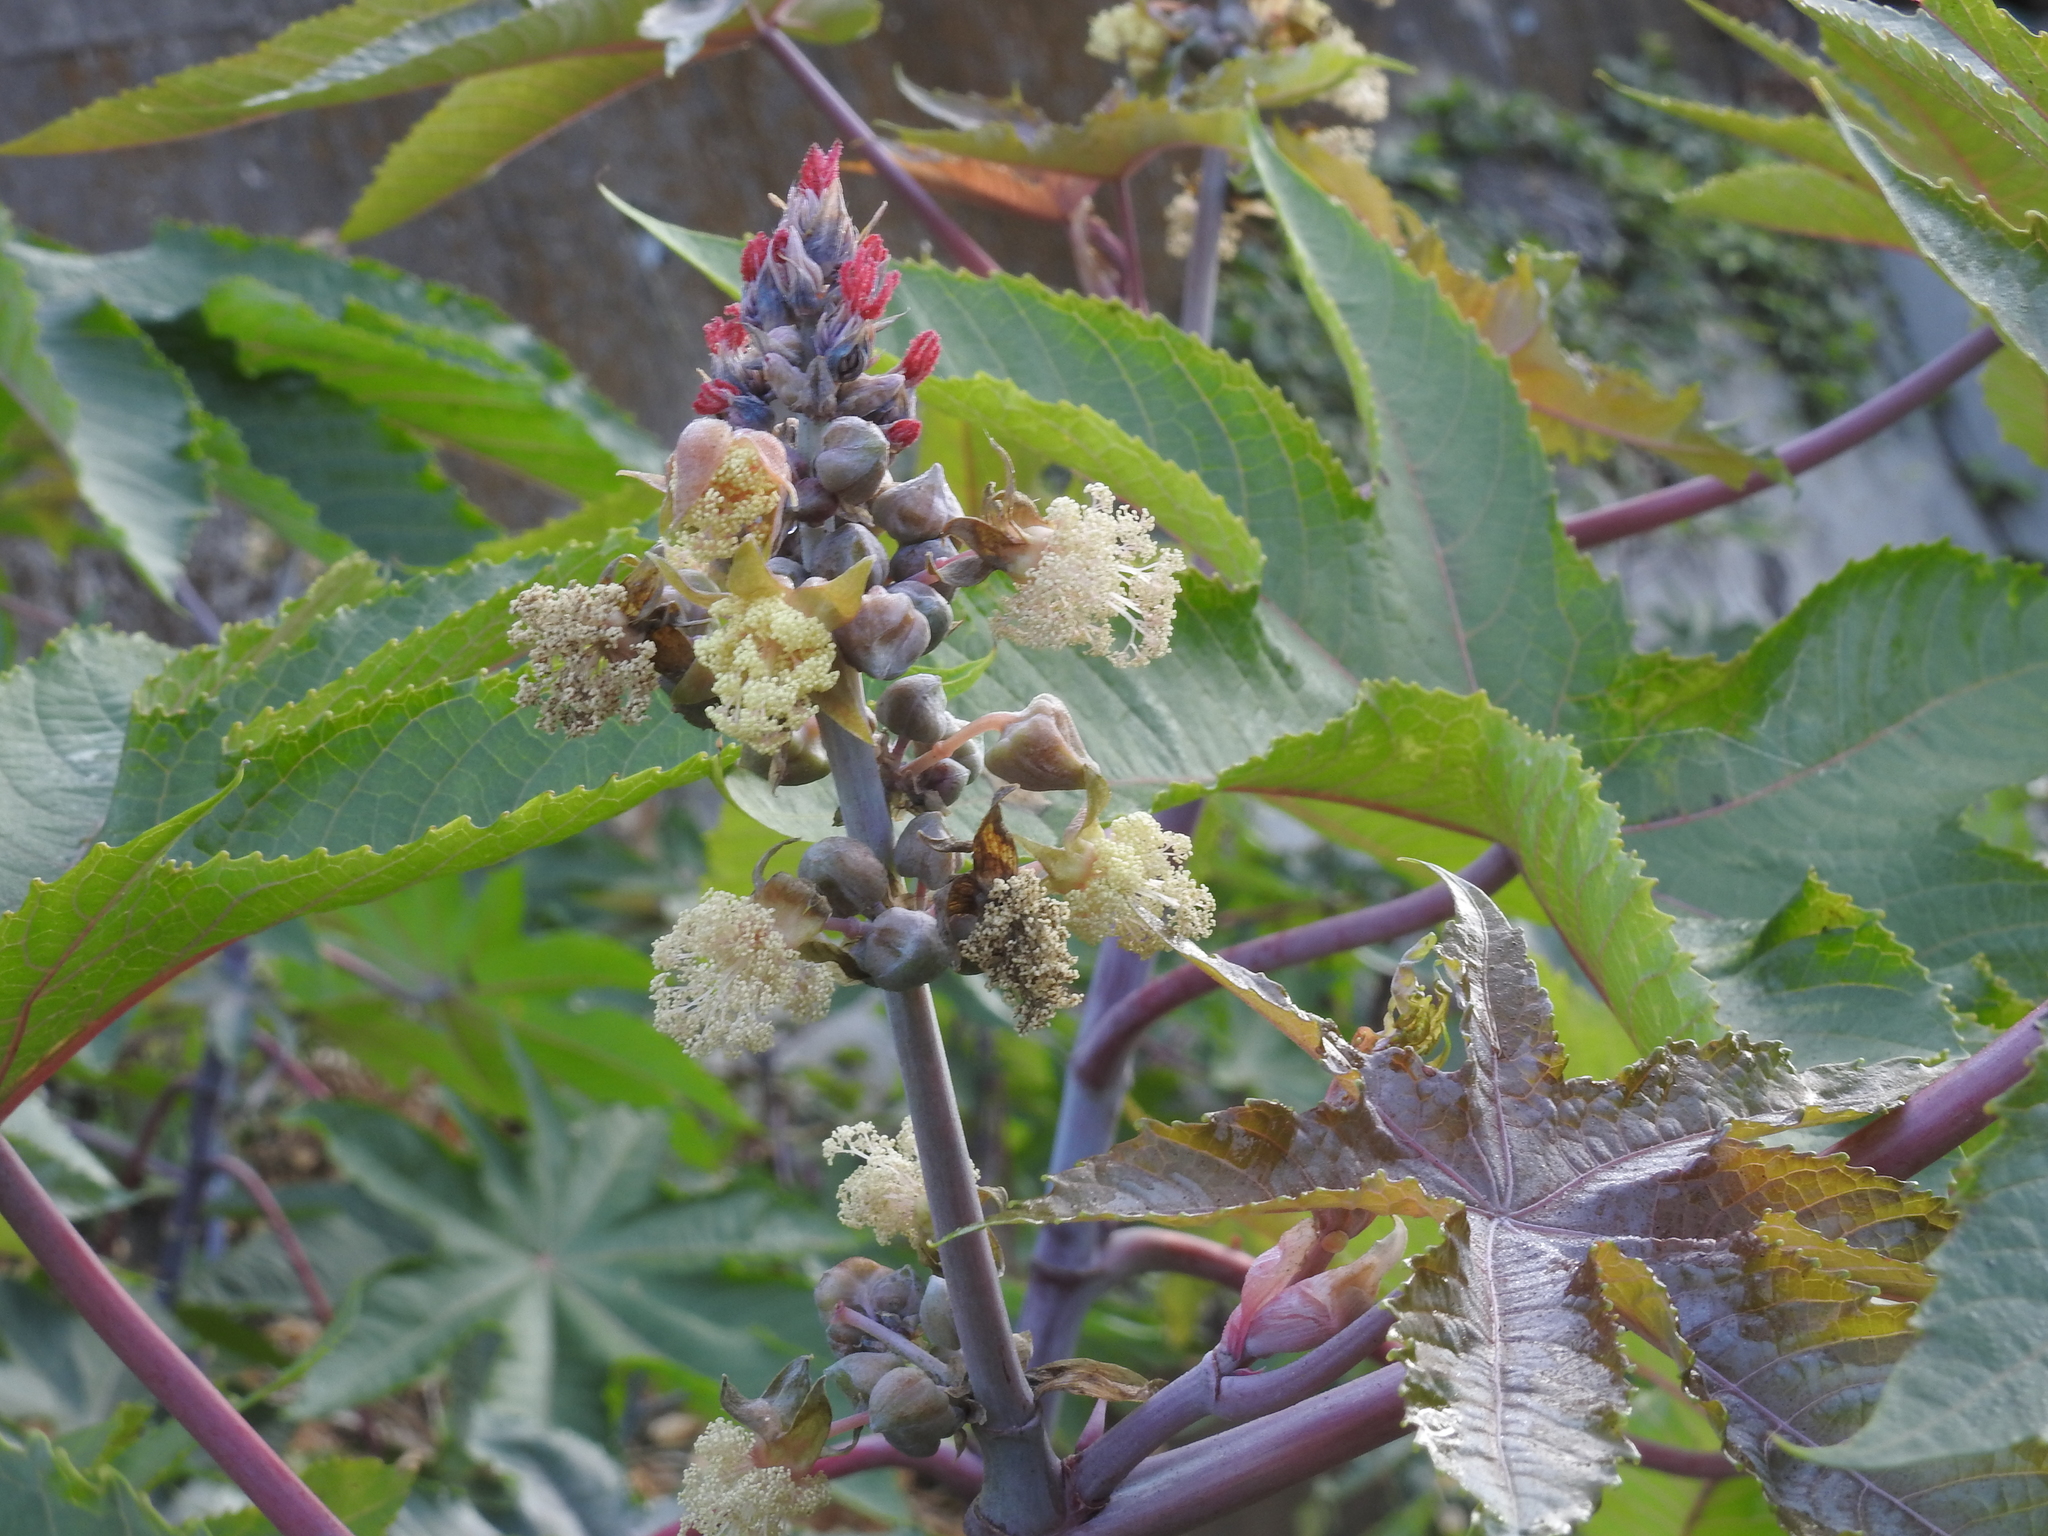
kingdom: Plantae
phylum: Tracheophyta
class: Magnoliopsida
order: Malpighiales
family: Euphorbiaceae
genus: Ricinus
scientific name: Ricinus communis
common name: Castor-oil-plant
